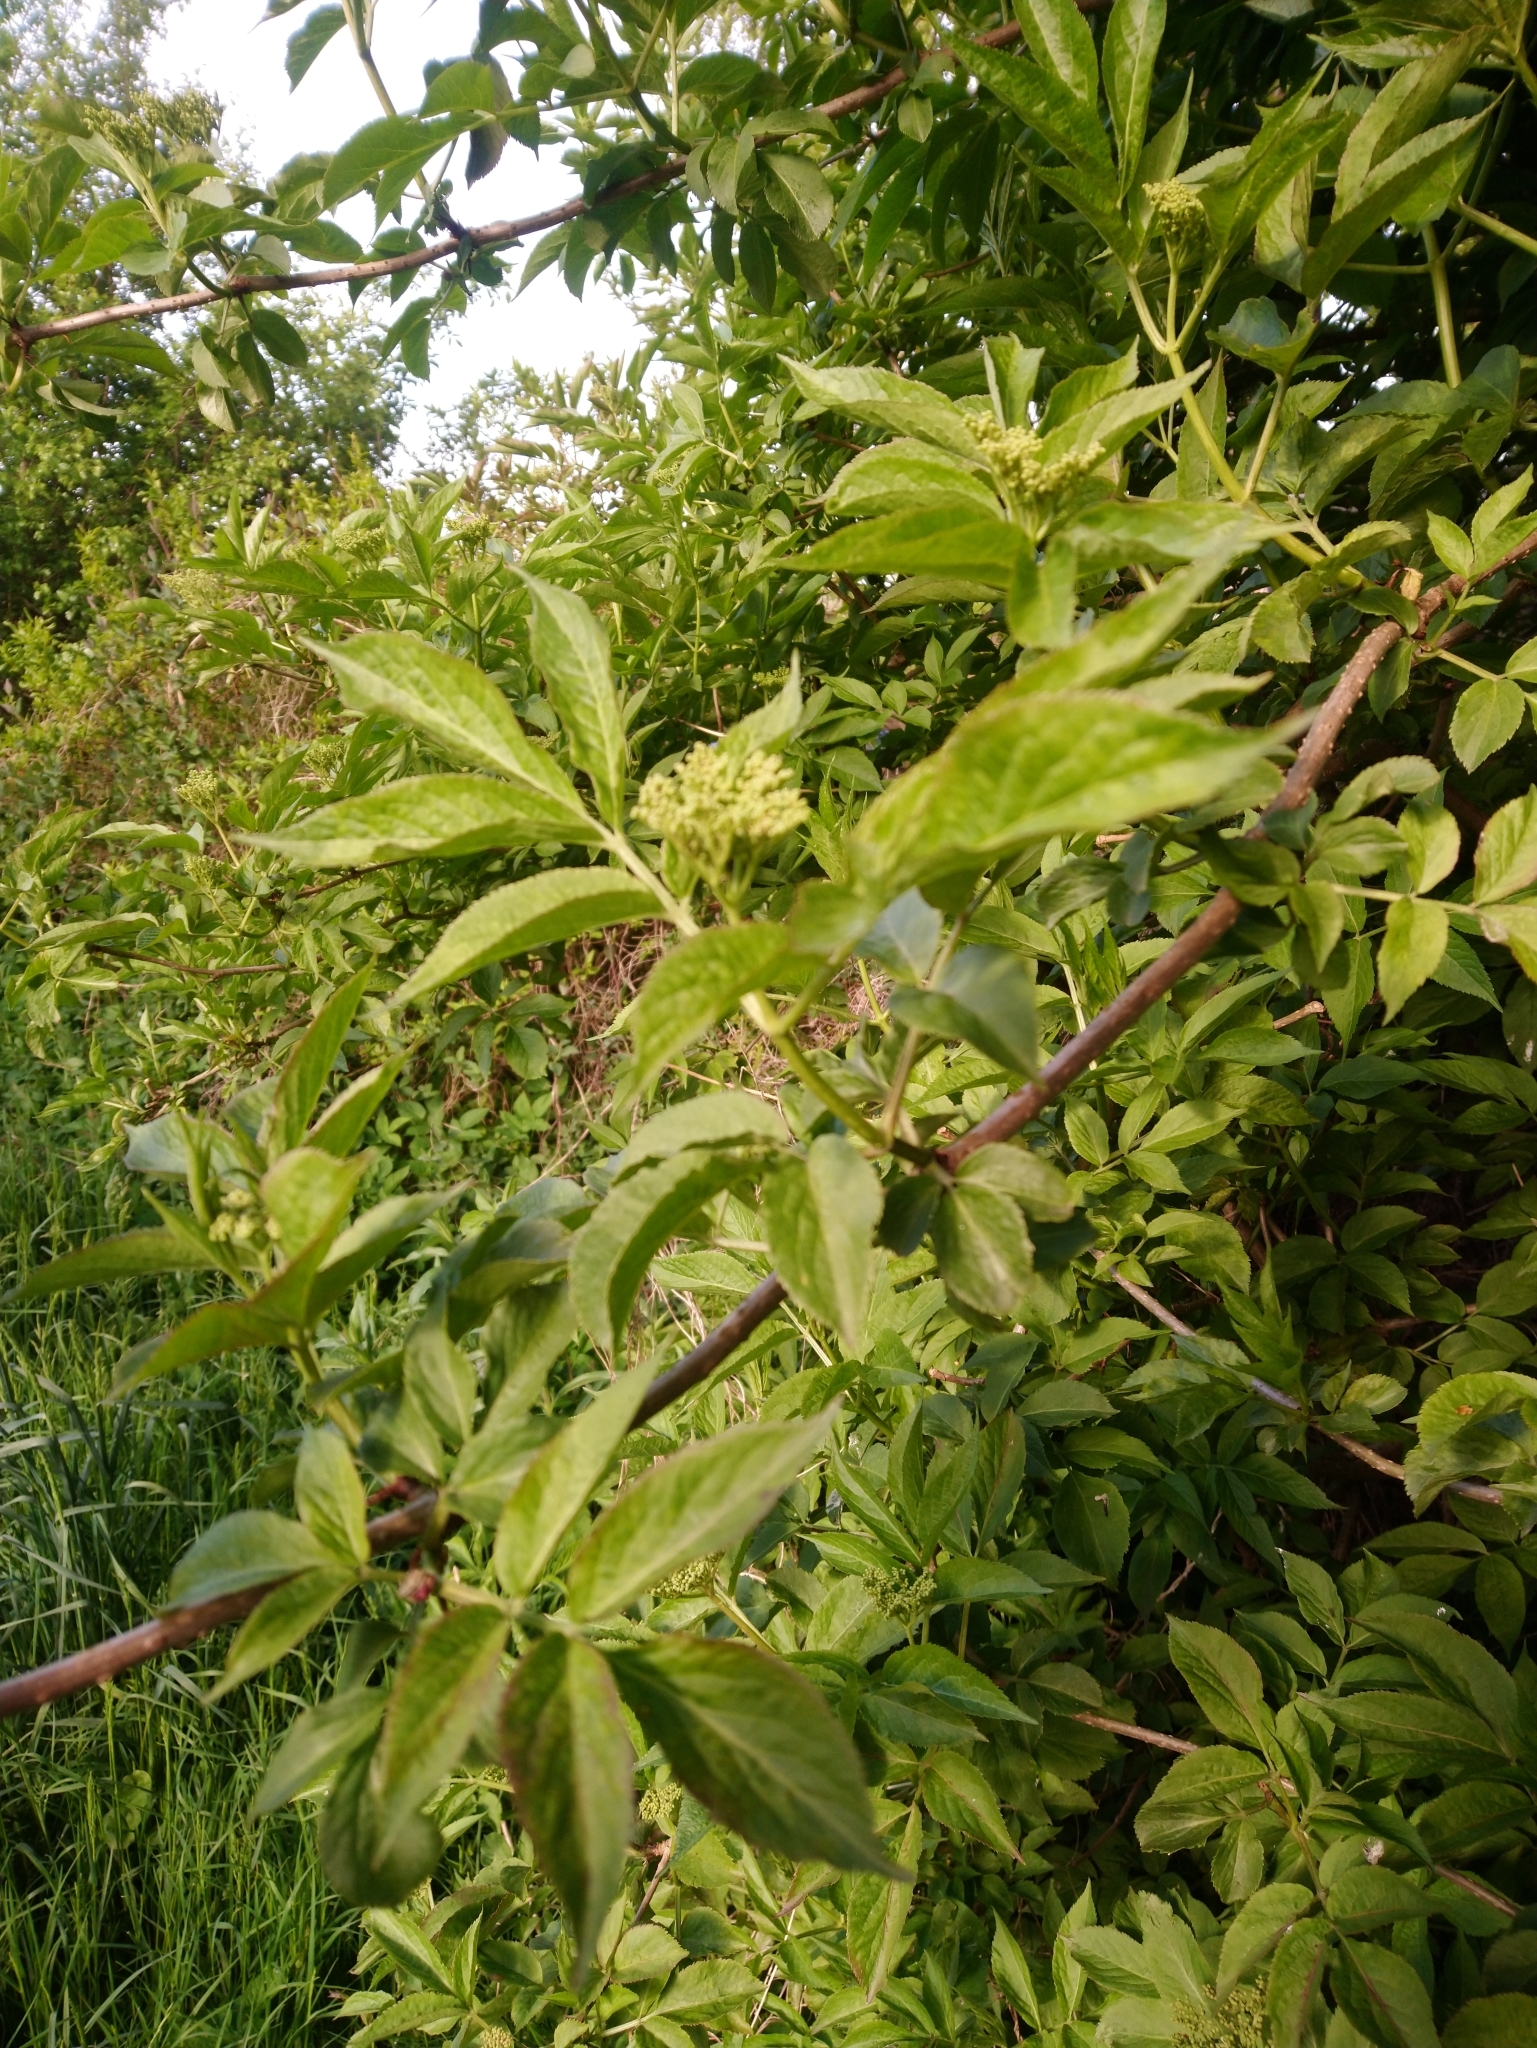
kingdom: Plantae
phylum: Tracheophyta
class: Magnoliopsida
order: Dipsacales
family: Viburnaceae
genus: Sambucus
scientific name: Sambucus nigra
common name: Elder
